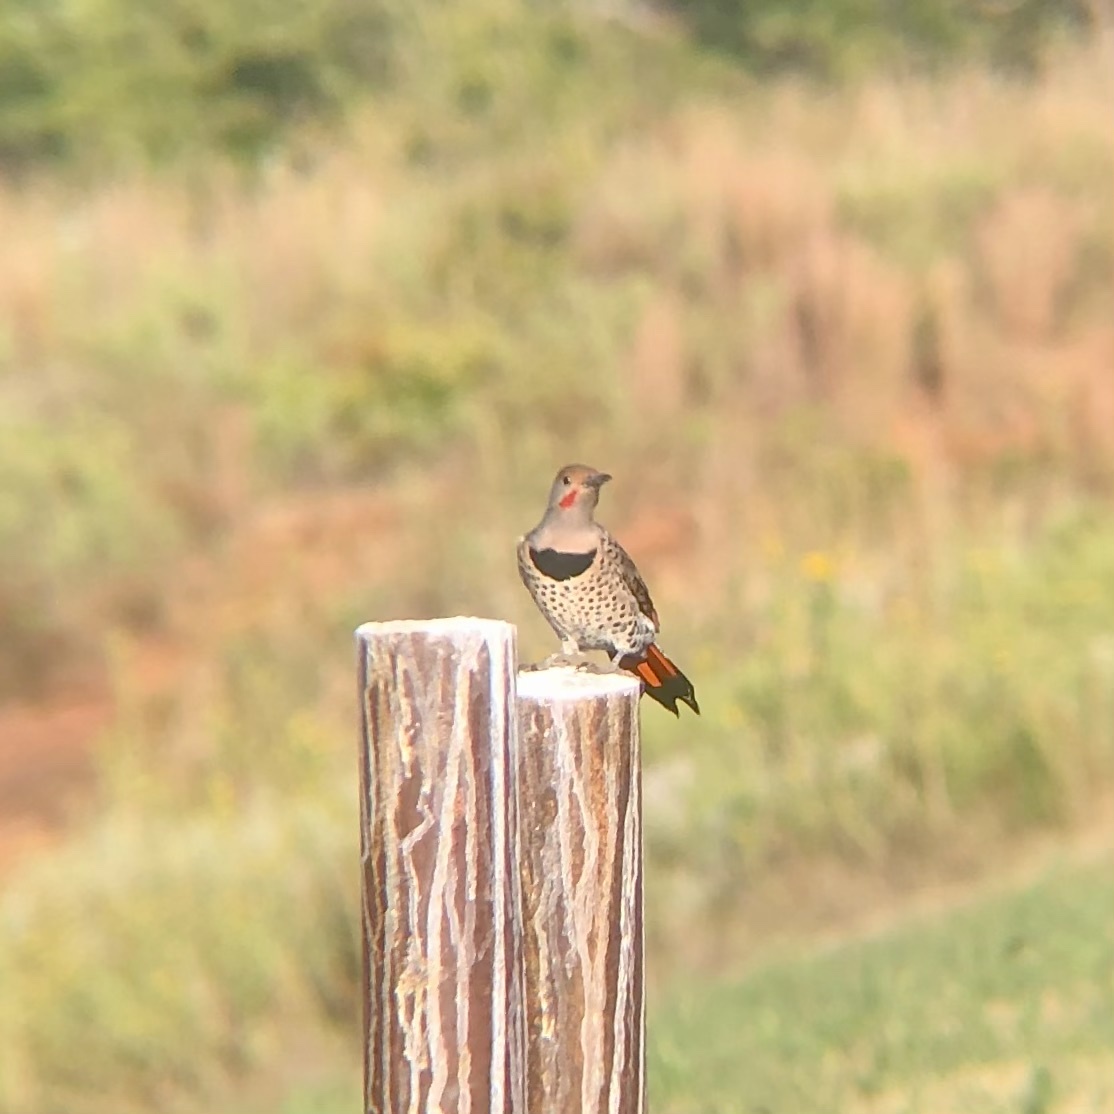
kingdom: Animalia
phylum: Chordata
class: Aves
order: Piciformes
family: Picidae
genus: Colaptes
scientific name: Colaptes auratus
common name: Northern flicker
